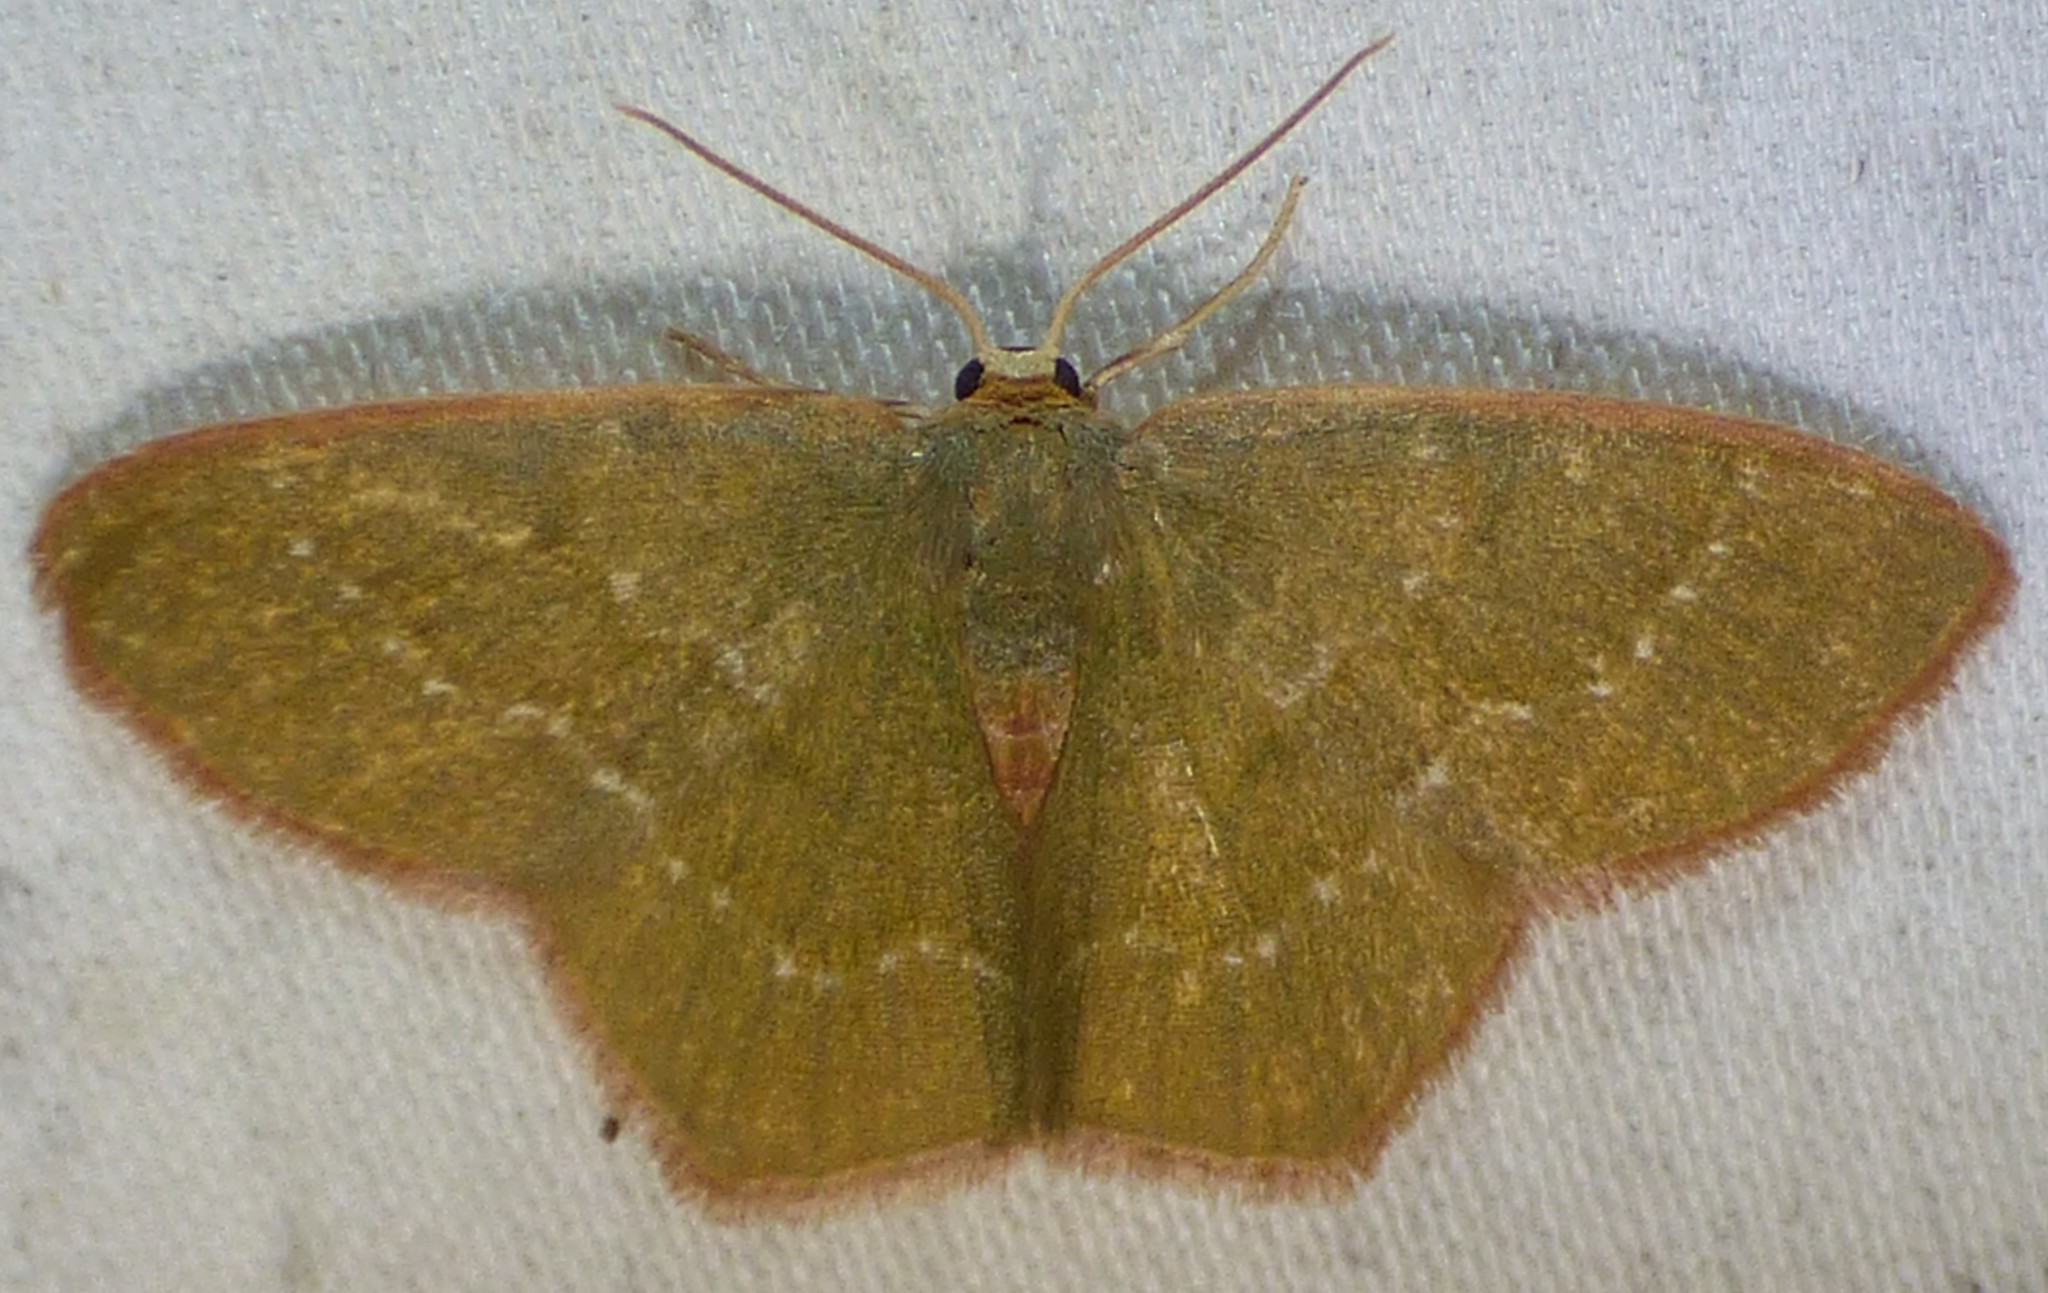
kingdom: Animalia
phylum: Arthropoda
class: Insecta
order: Lepidoptera
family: Geometridae
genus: Thalera
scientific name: Thalera pistasciaria
